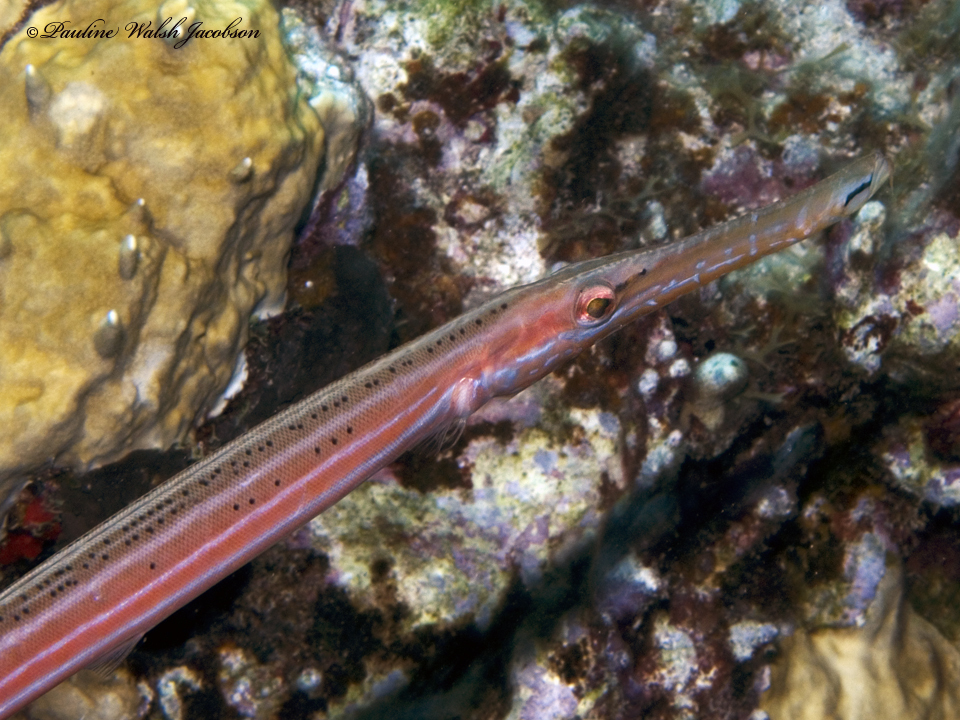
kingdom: Animalia
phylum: Chordata
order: Syngnathiformes
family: Aulostomidae
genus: Aulostomus
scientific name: Aulostomus maculatus
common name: West atlantic trumpetfish
